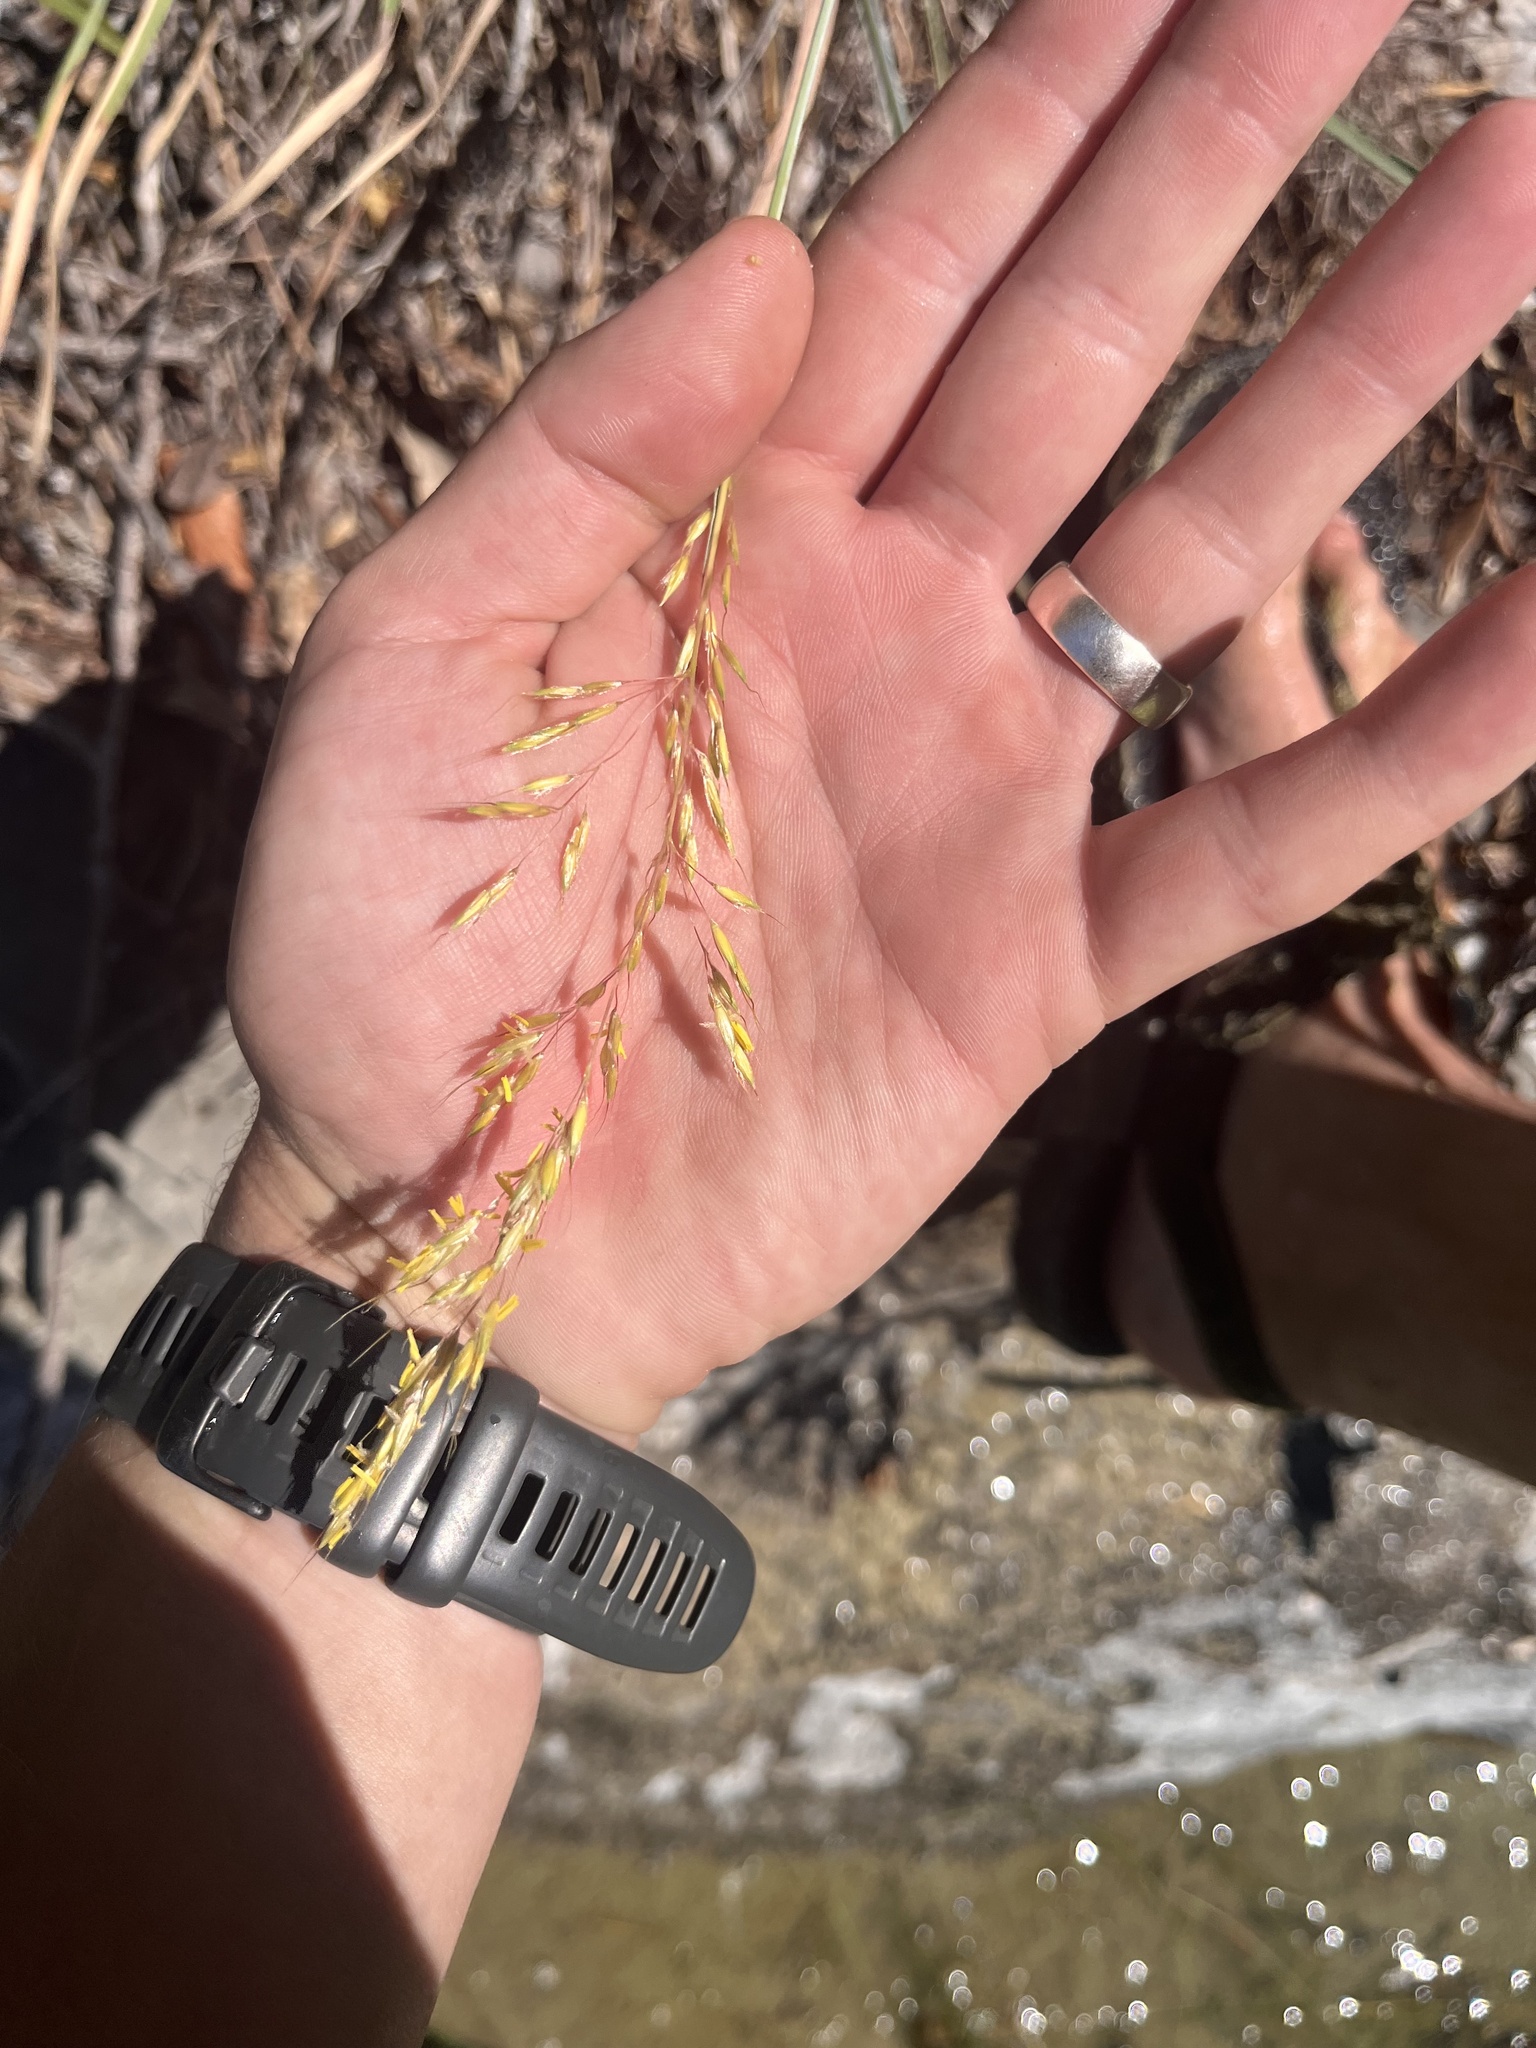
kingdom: Plantae
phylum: Tracheophyta
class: Liliopsida
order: Poales
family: Poaceae
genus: Sorghastrum
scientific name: Sorghastrum nutans
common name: Indian grass
